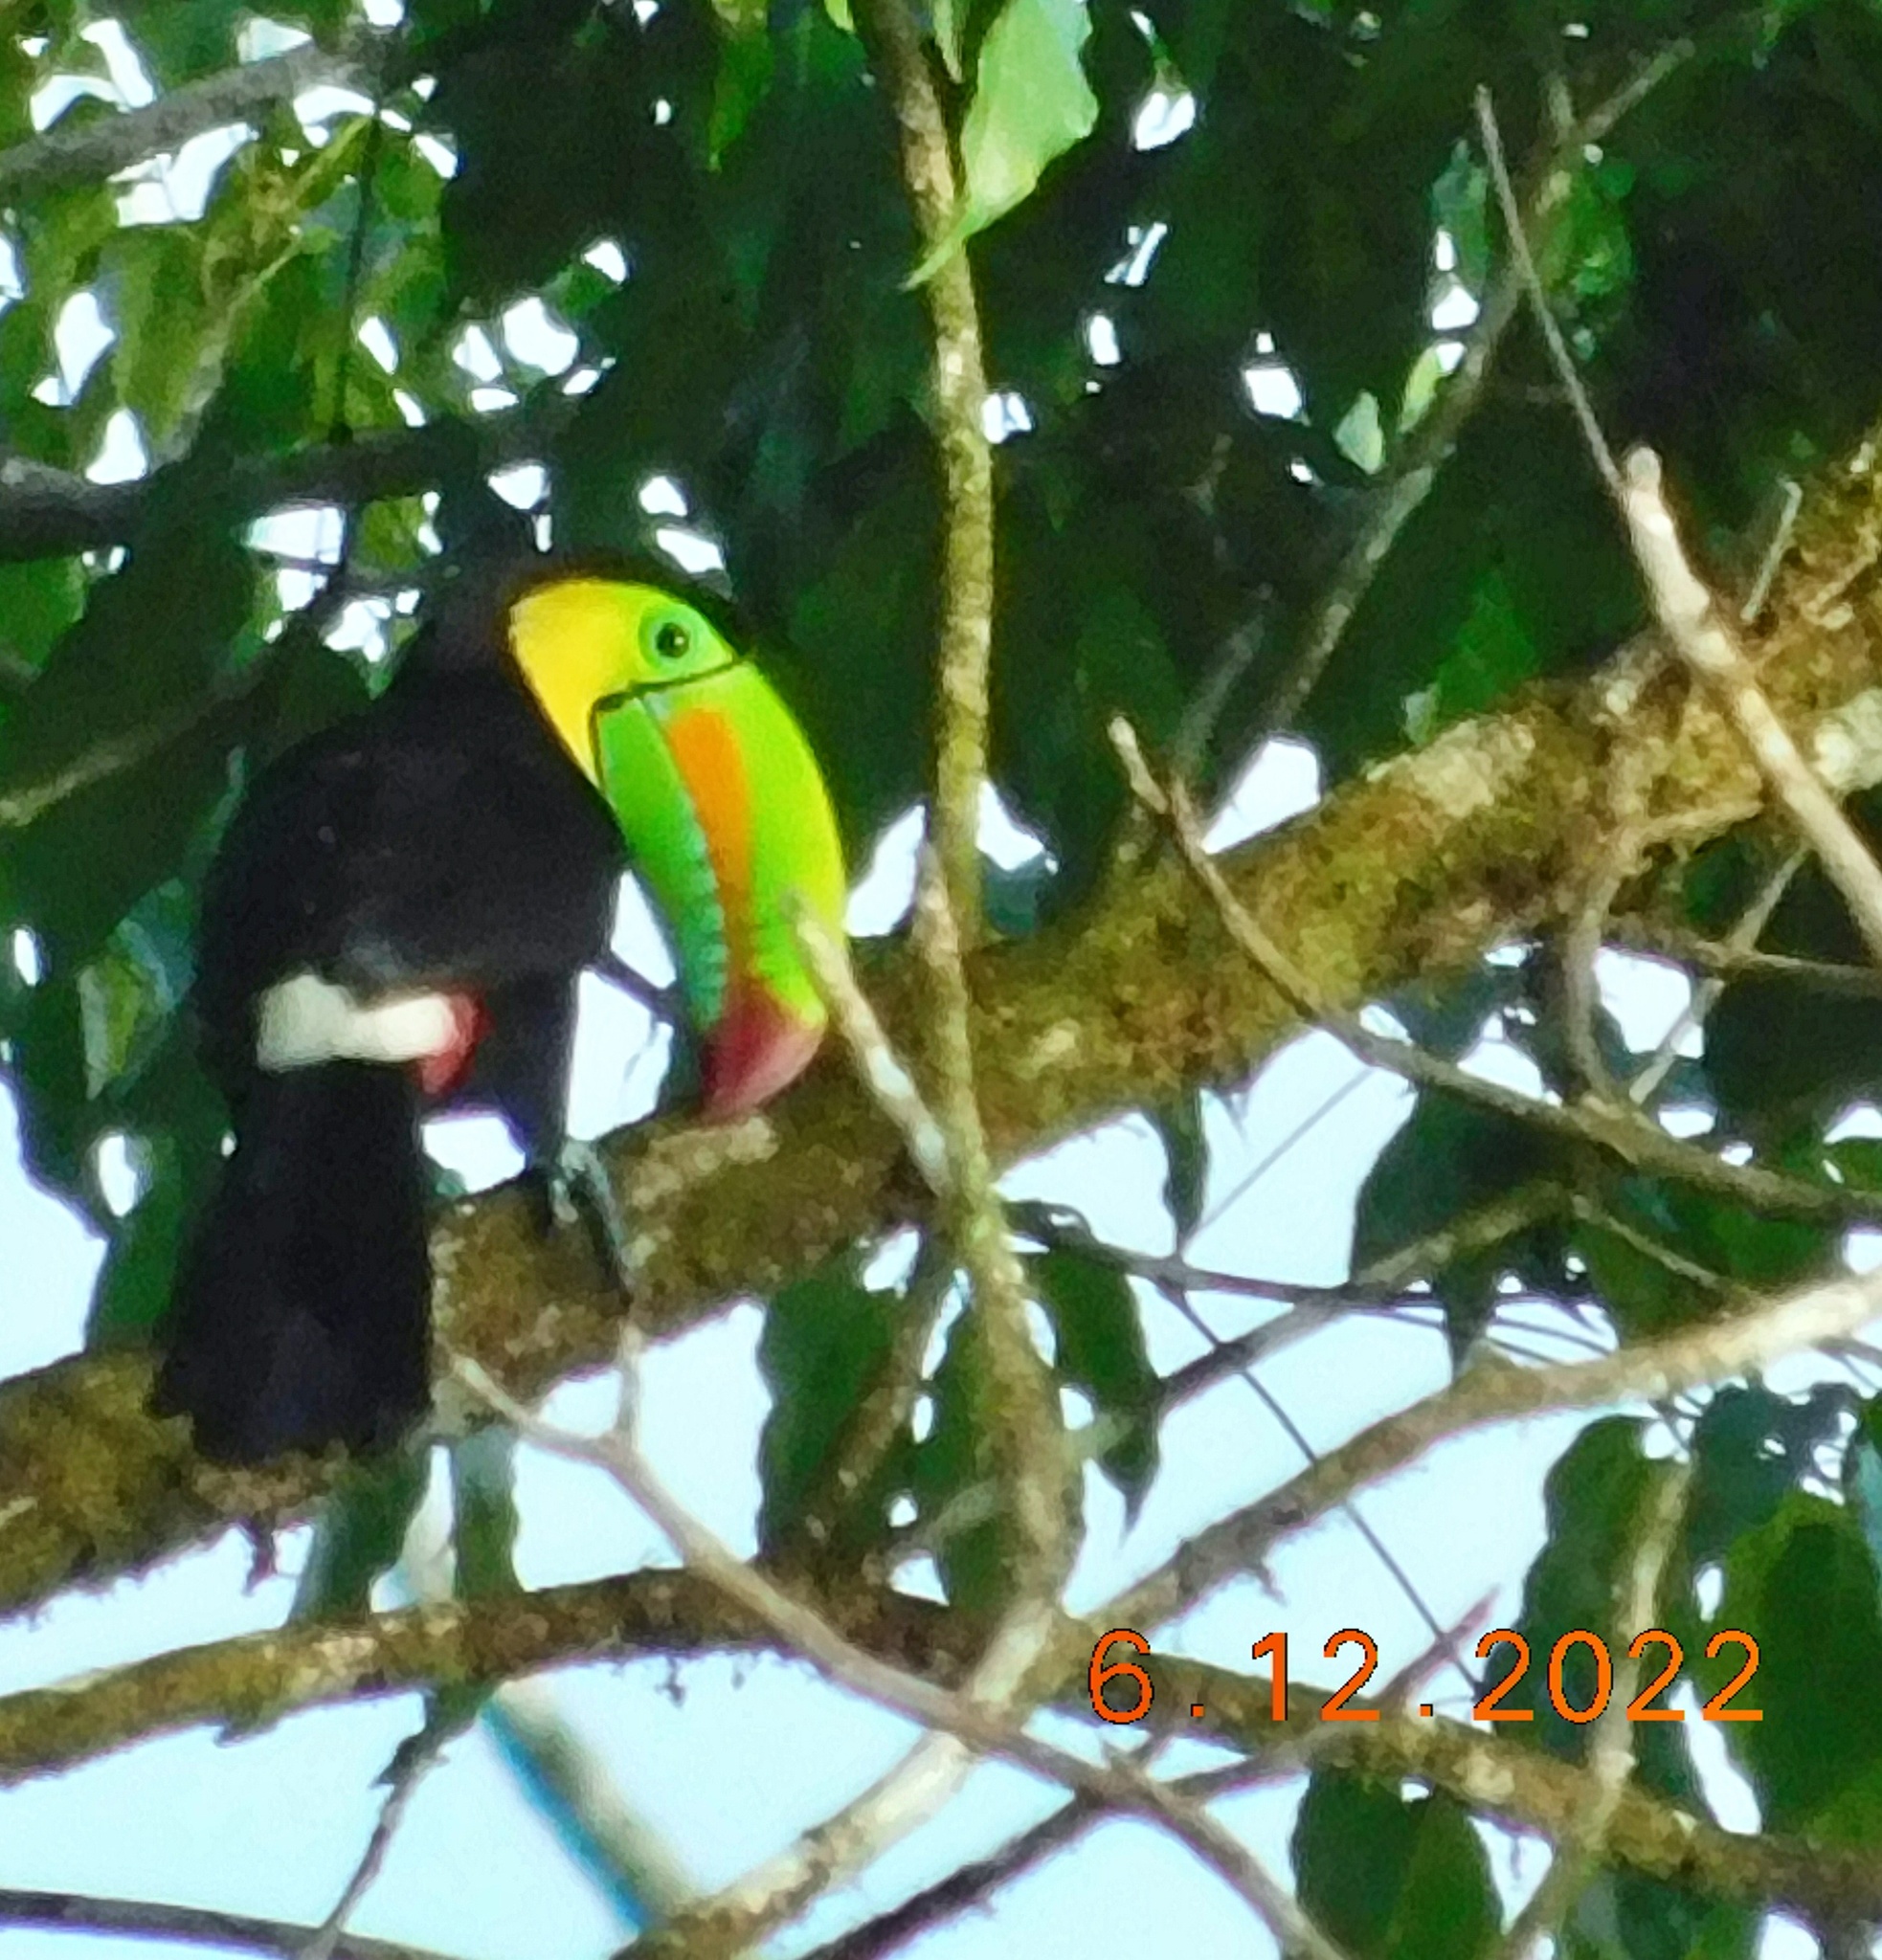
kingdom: Animalia
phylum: Chordata
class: Aves
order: Piciformes
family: Ramphastidae
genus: Ramphastos
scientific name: Ramphastos sulfuratus
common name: Keel-billed toucan
